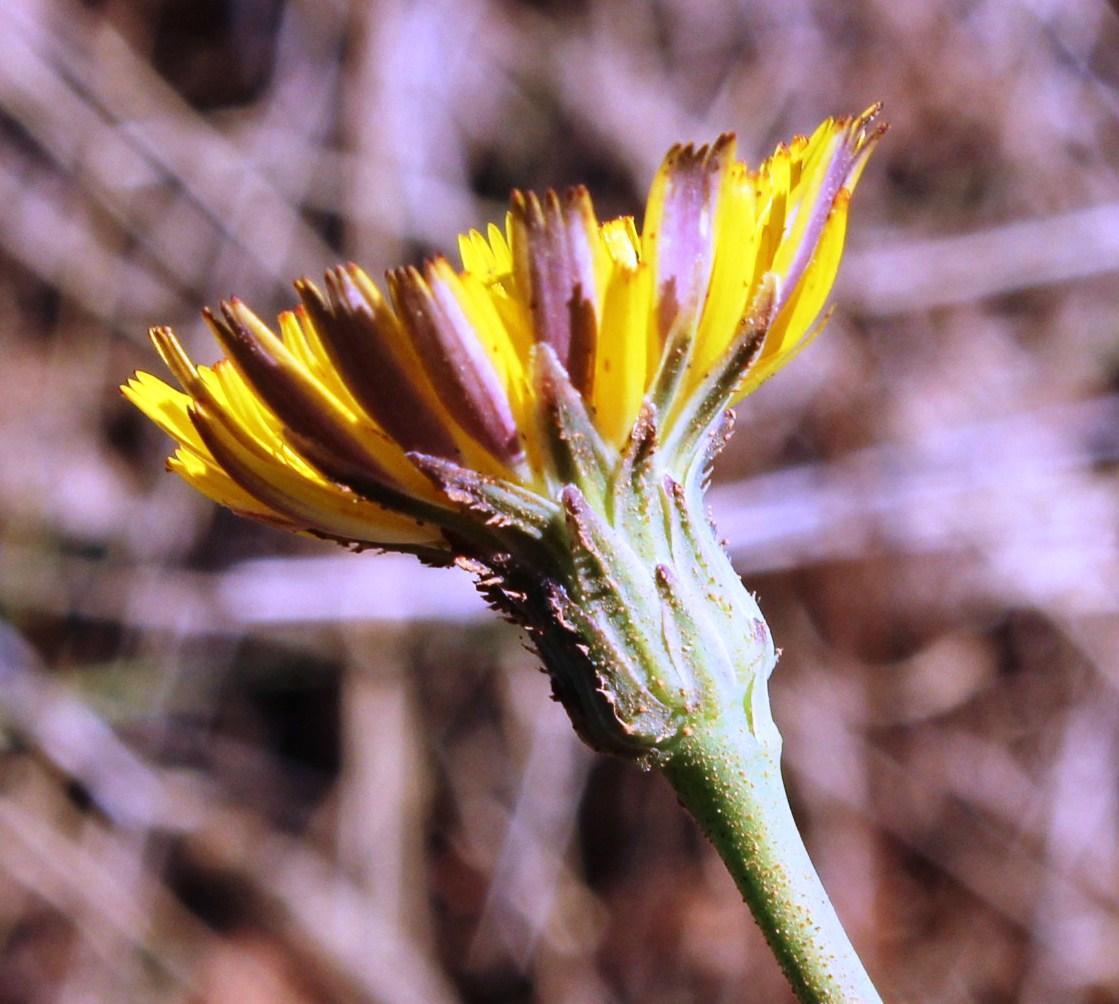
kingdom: Plantae
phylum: Tracheophyta
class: Magnoliopsida
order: Asterales
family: Asteraceae
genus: Hypochaeris
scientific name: Hypochaeris radicata
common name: Flatweed
